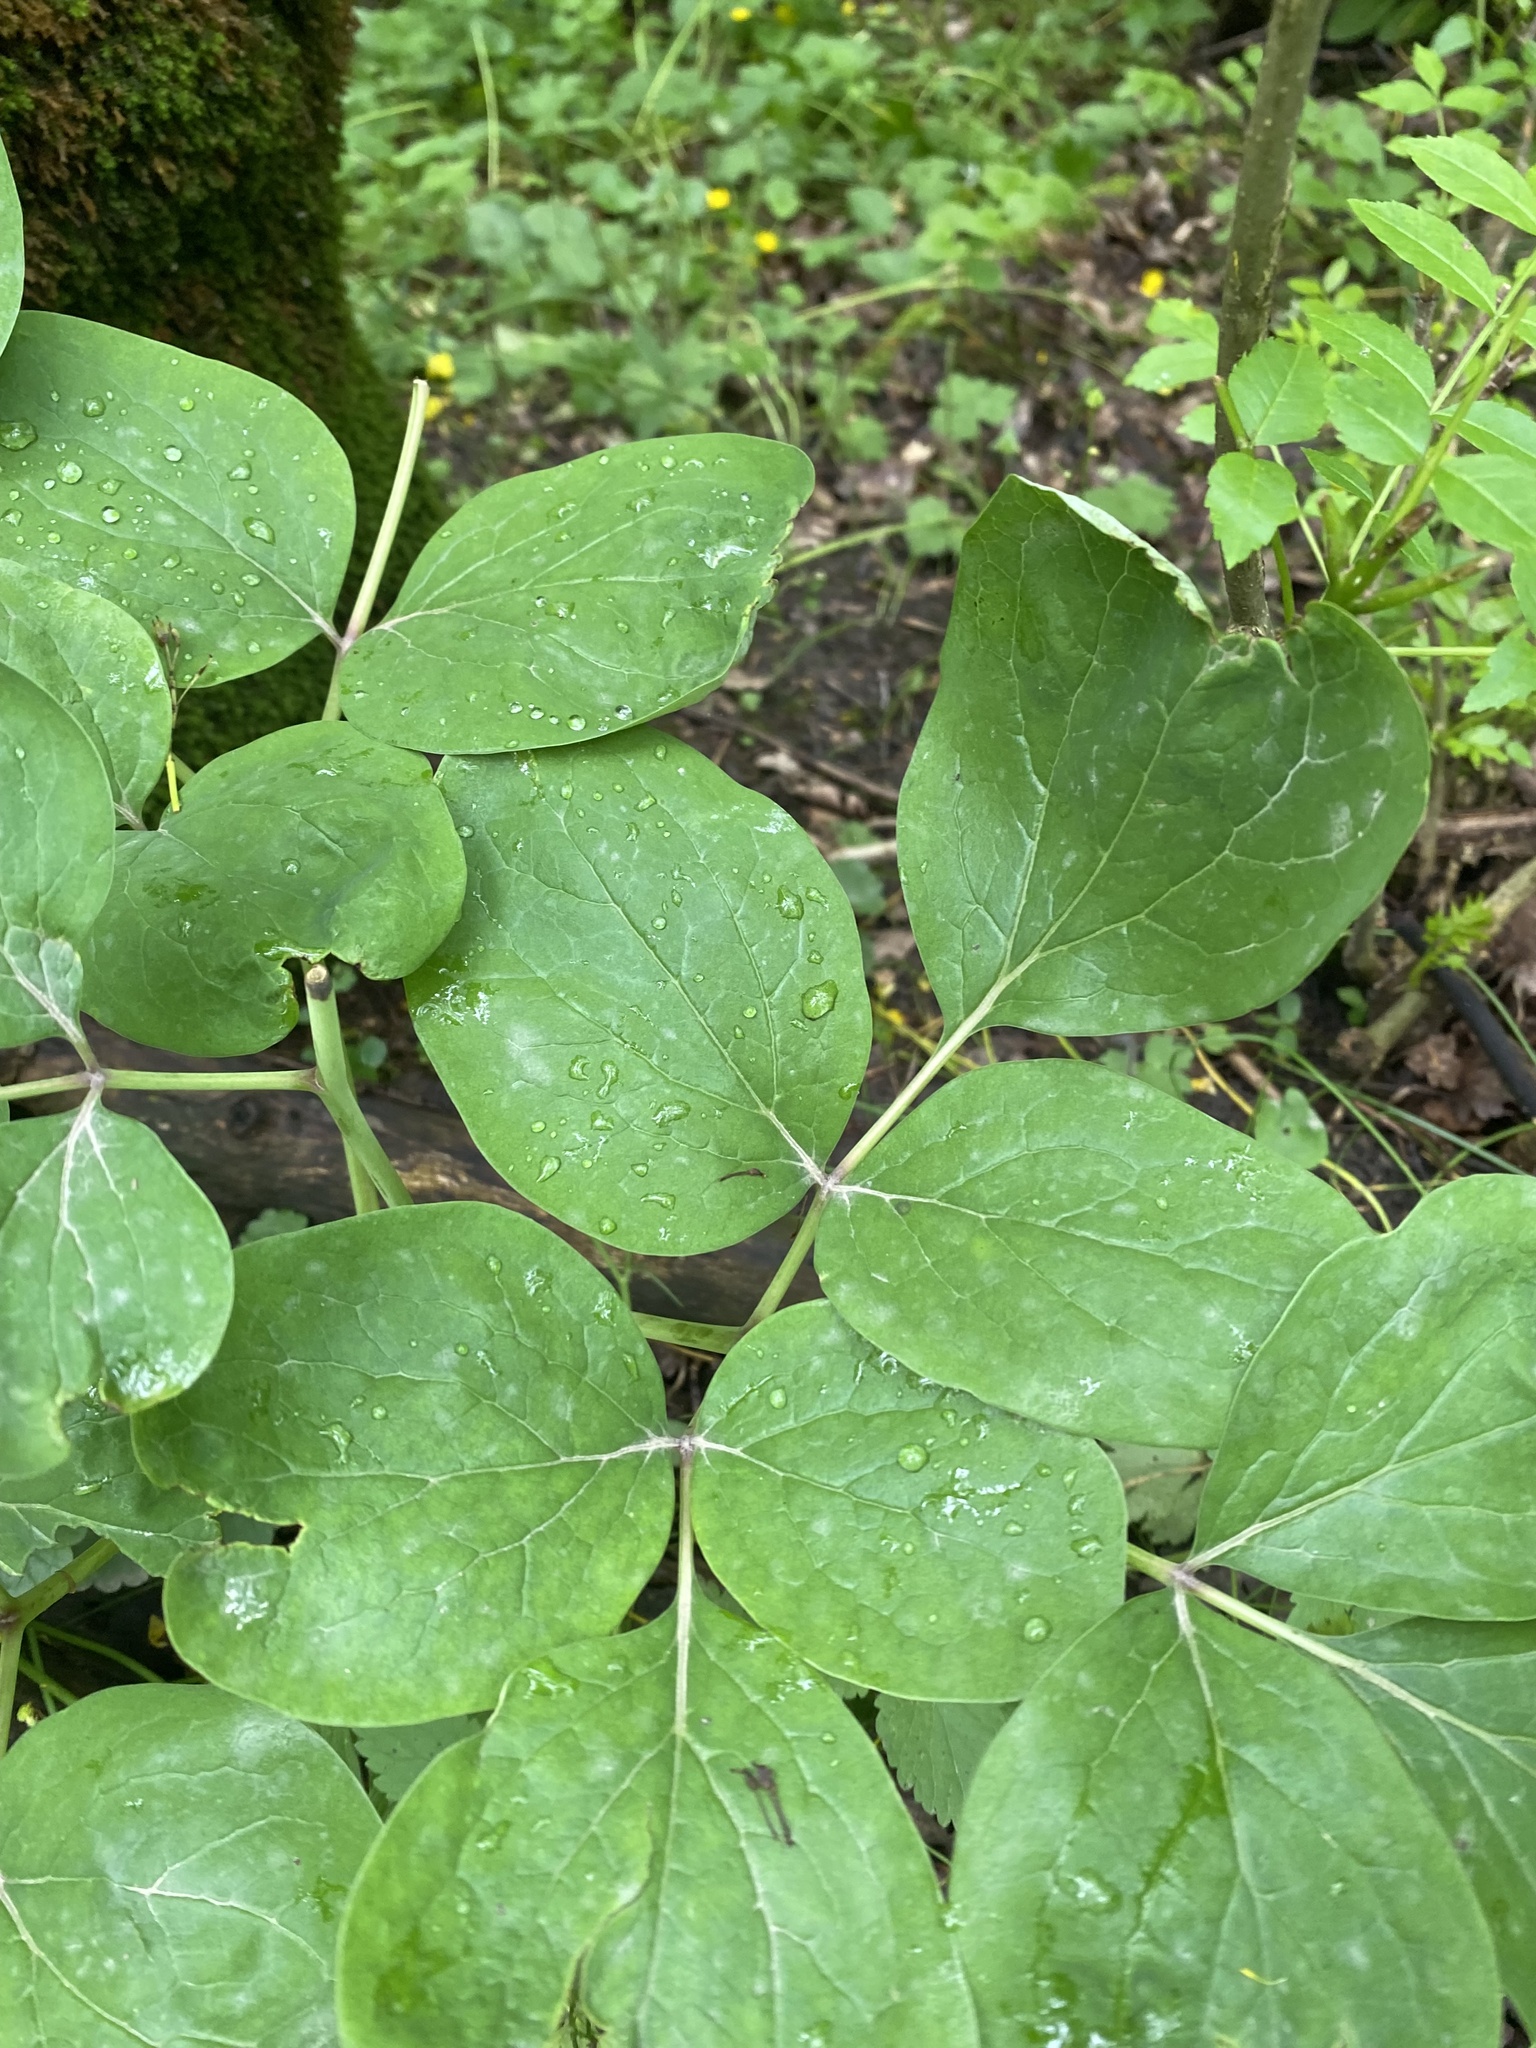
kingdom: Plantae
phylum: Tracheophyta
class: Magnoliopsida
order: Saxifragales
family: Paeoniaceae
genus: Paeonia
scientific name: Paeonia caucasica
